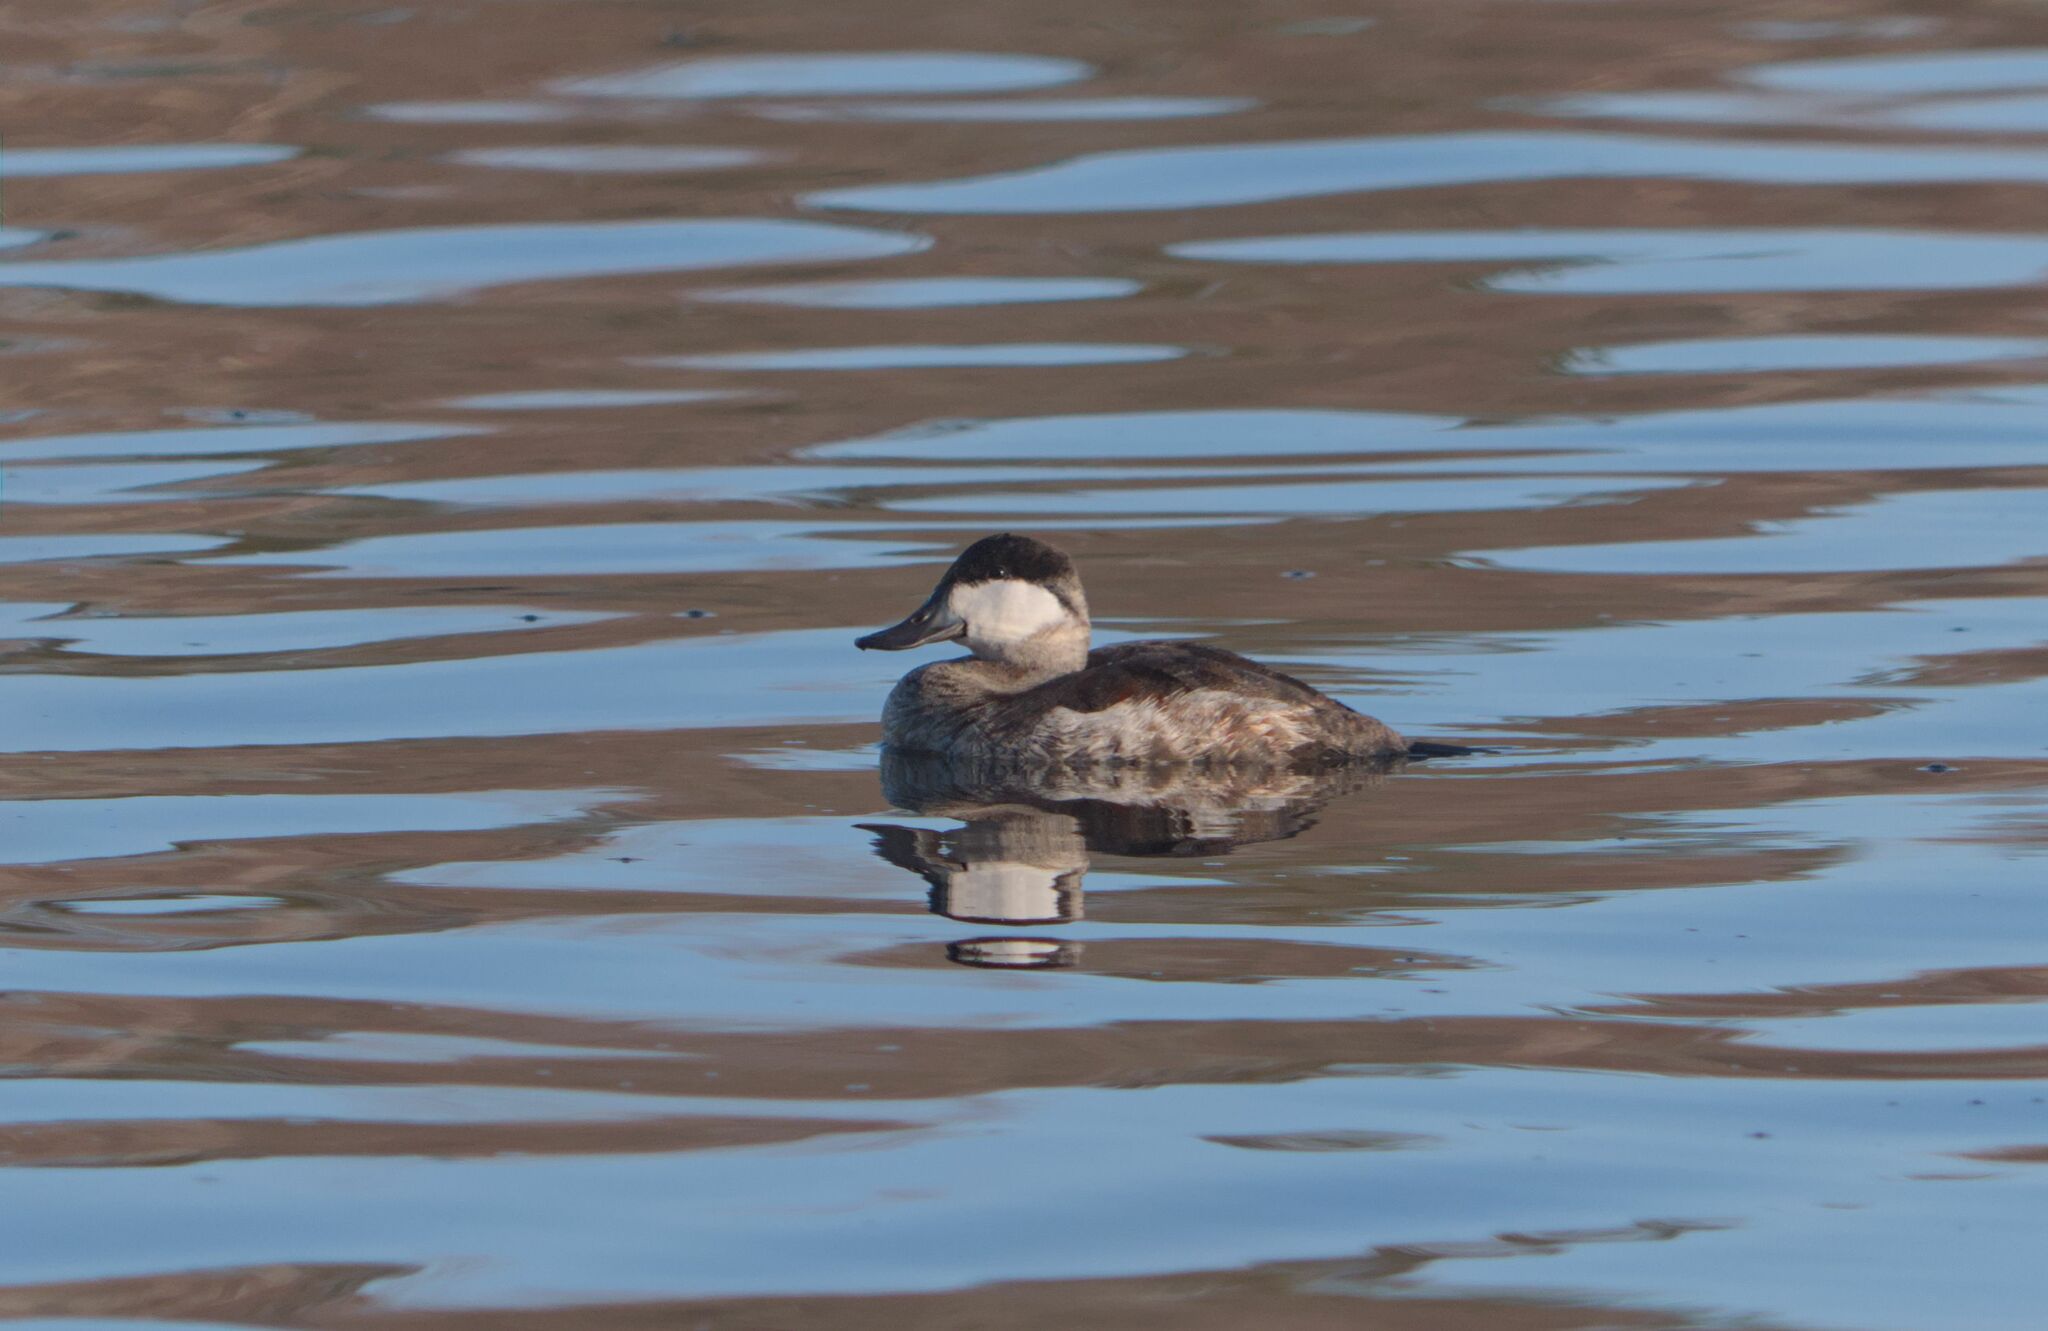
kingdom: Animalia
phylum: Chordata
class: Aves
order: Anseriformes
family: Anatidae
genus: Oxyura
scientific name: Oxyura jamaicensis
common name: Ruddy duck
